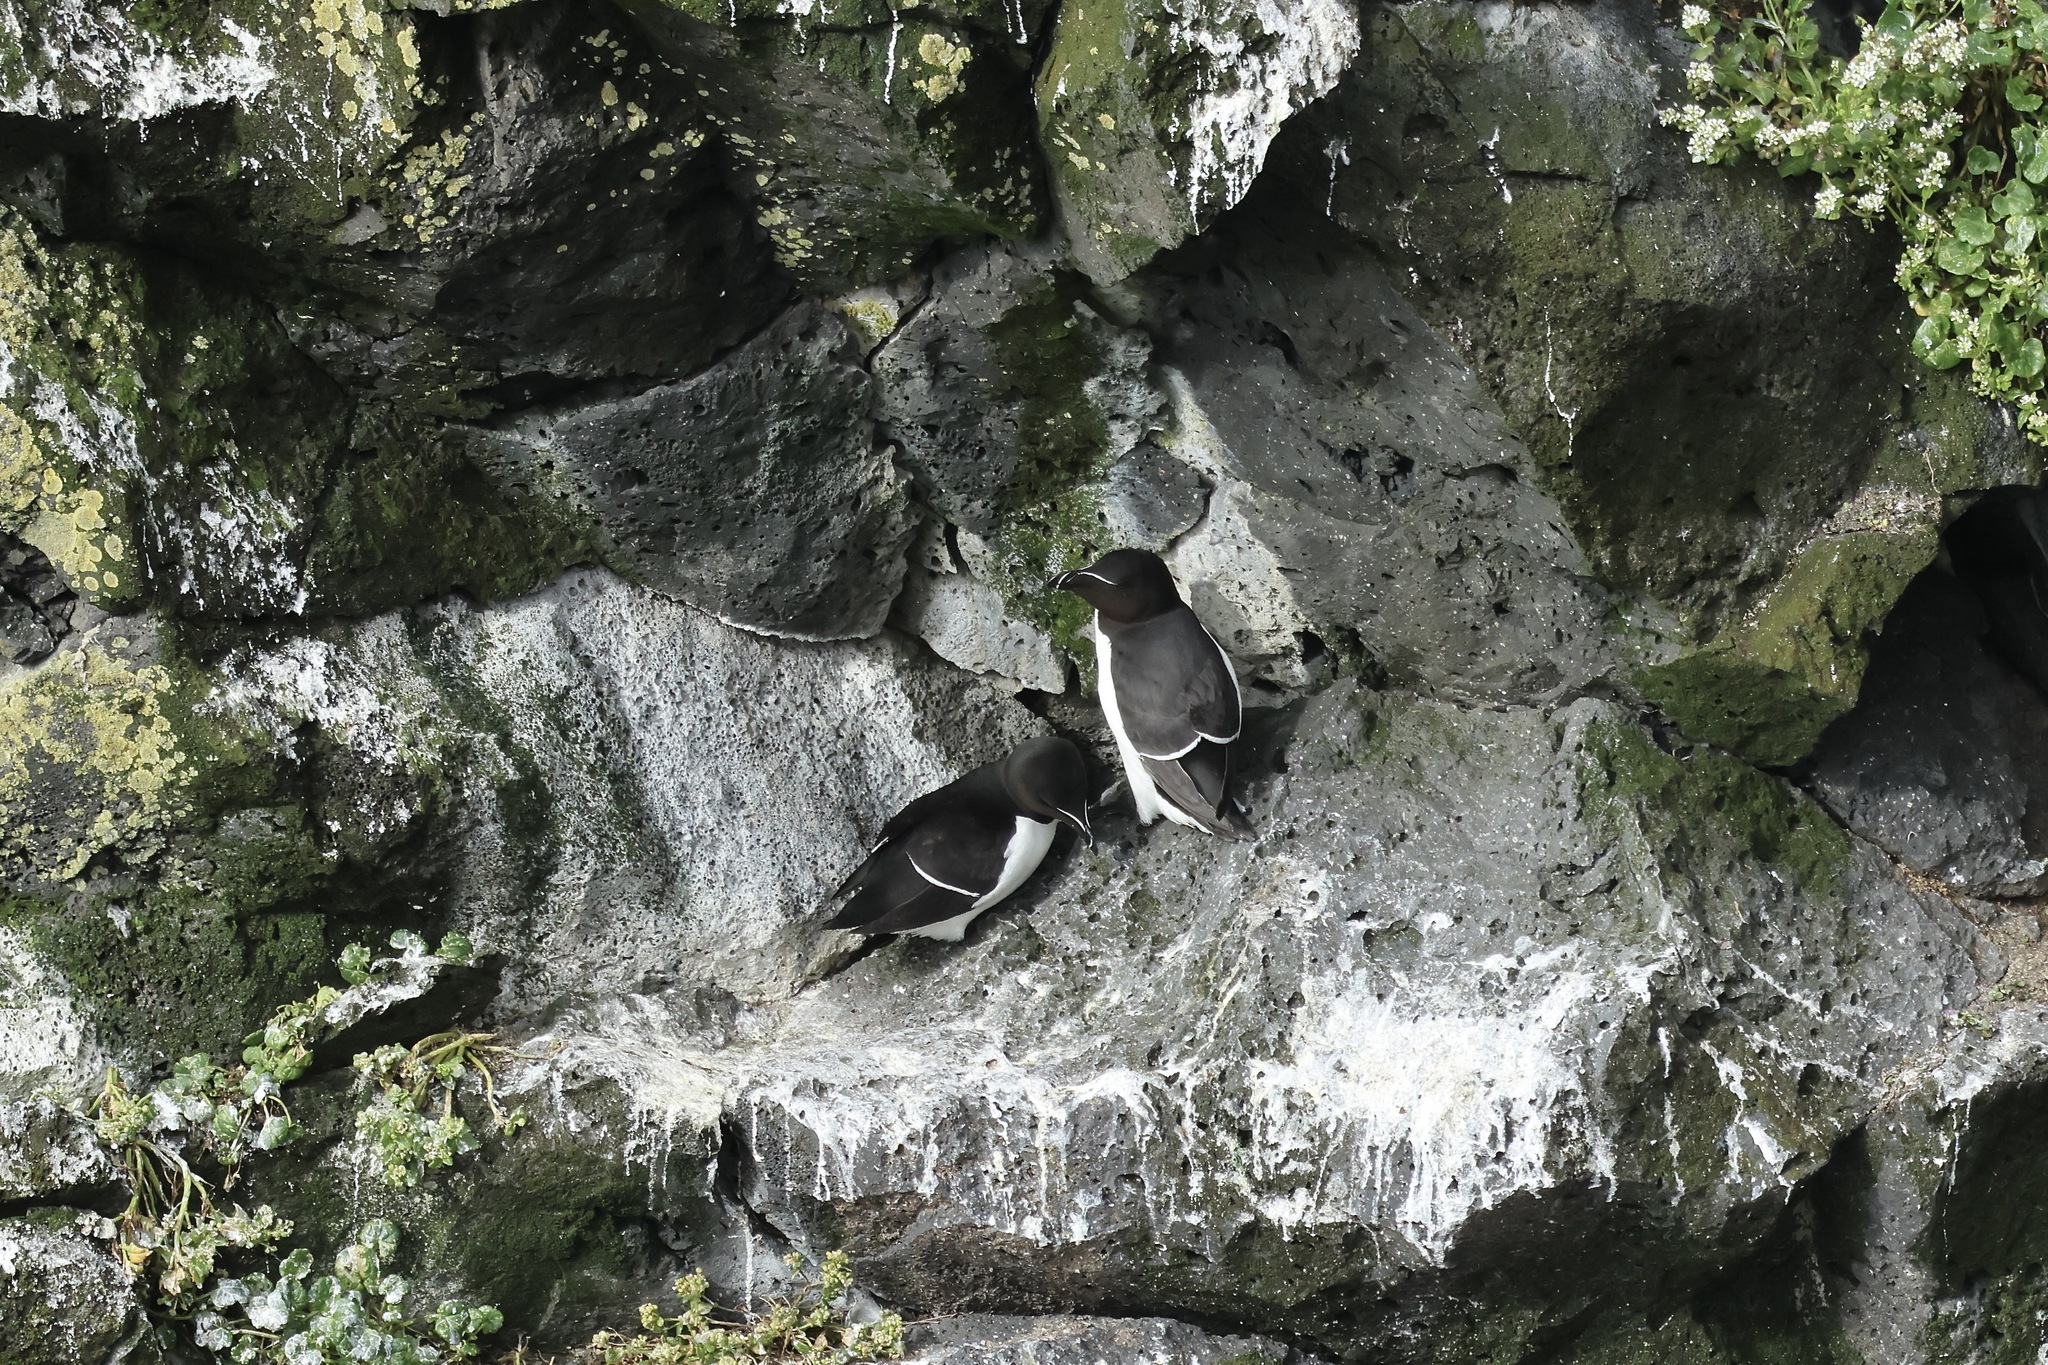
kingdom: Animalia
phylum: Chordata
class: Aves
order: Charadriiformes
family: Alcidae
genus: Alca
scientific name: Alca torda
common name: Razorbill
